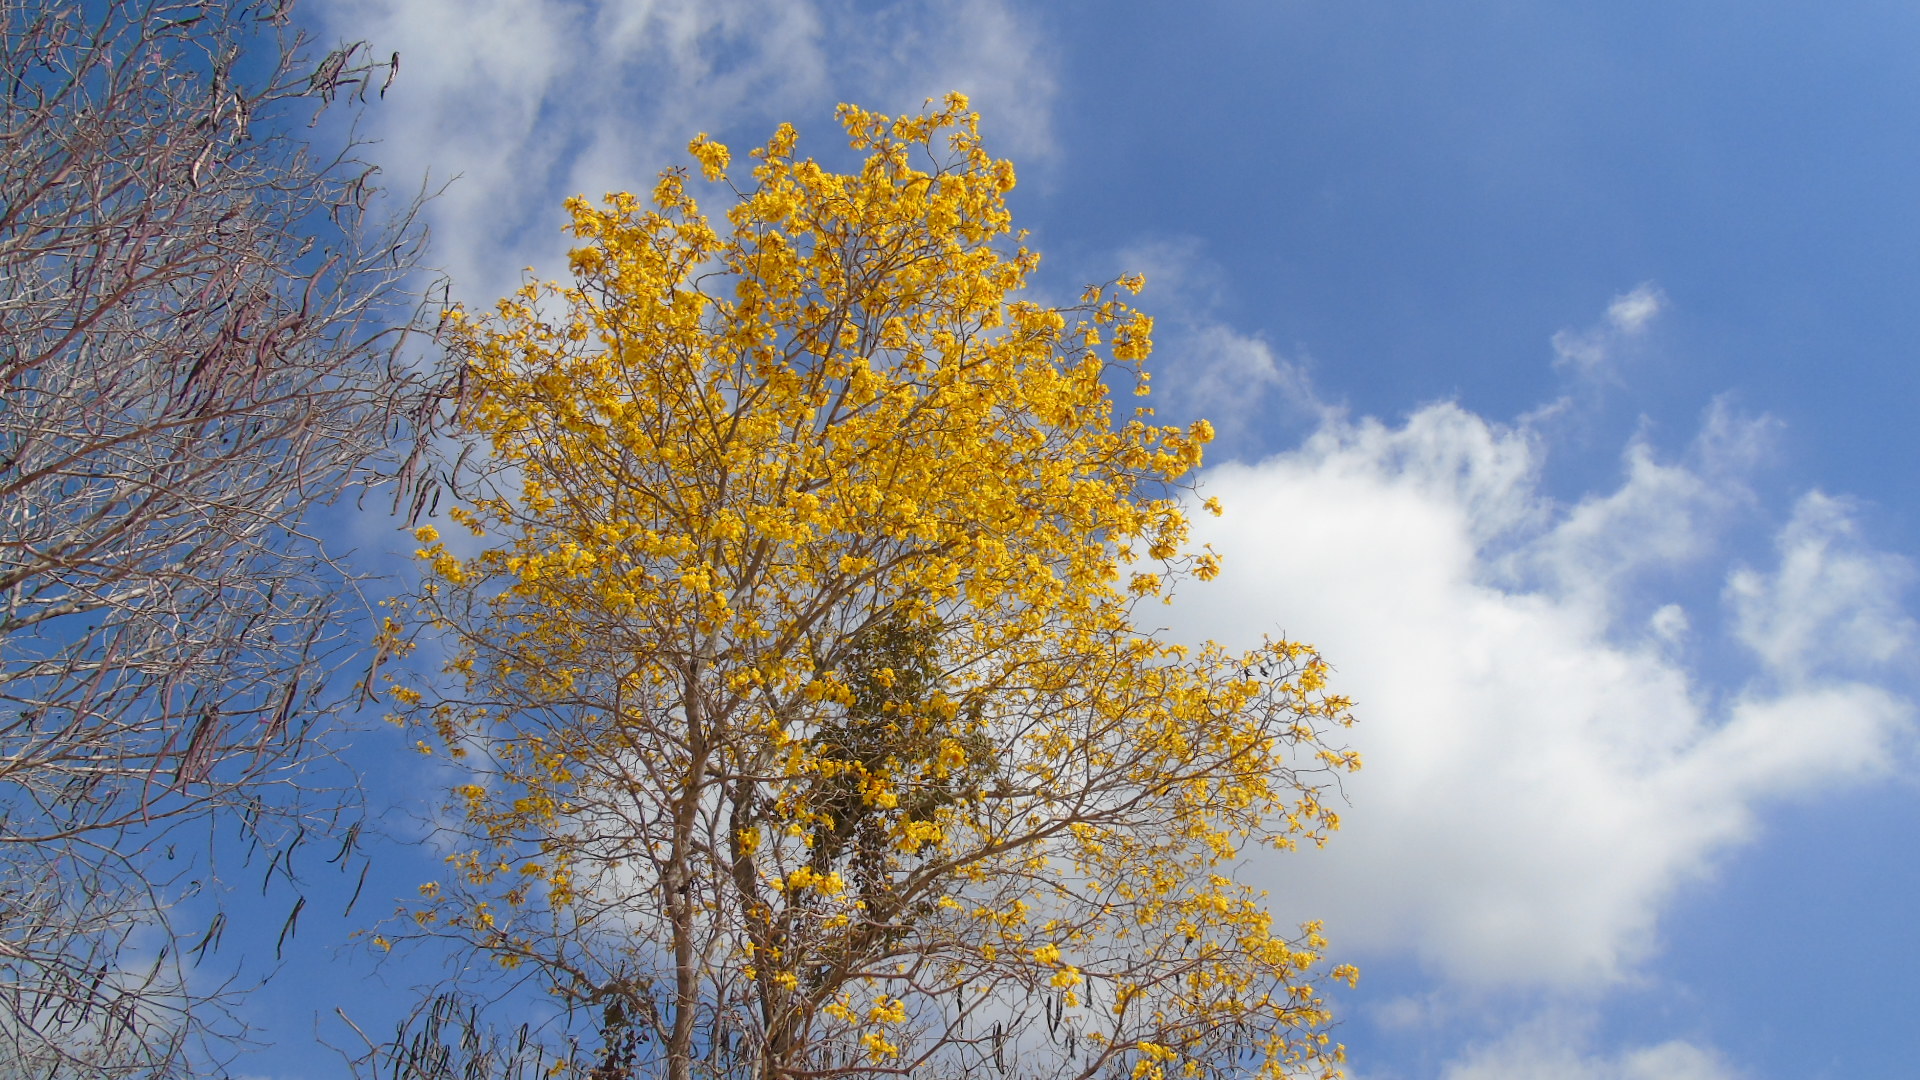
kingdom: Plantae
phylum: Tracheophyta
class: Magnoliopsida
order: Lamiales
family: Bignoniaceae
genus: Handroanthus
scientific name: Handroanthus chrysanthus
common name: Trumpet trees
